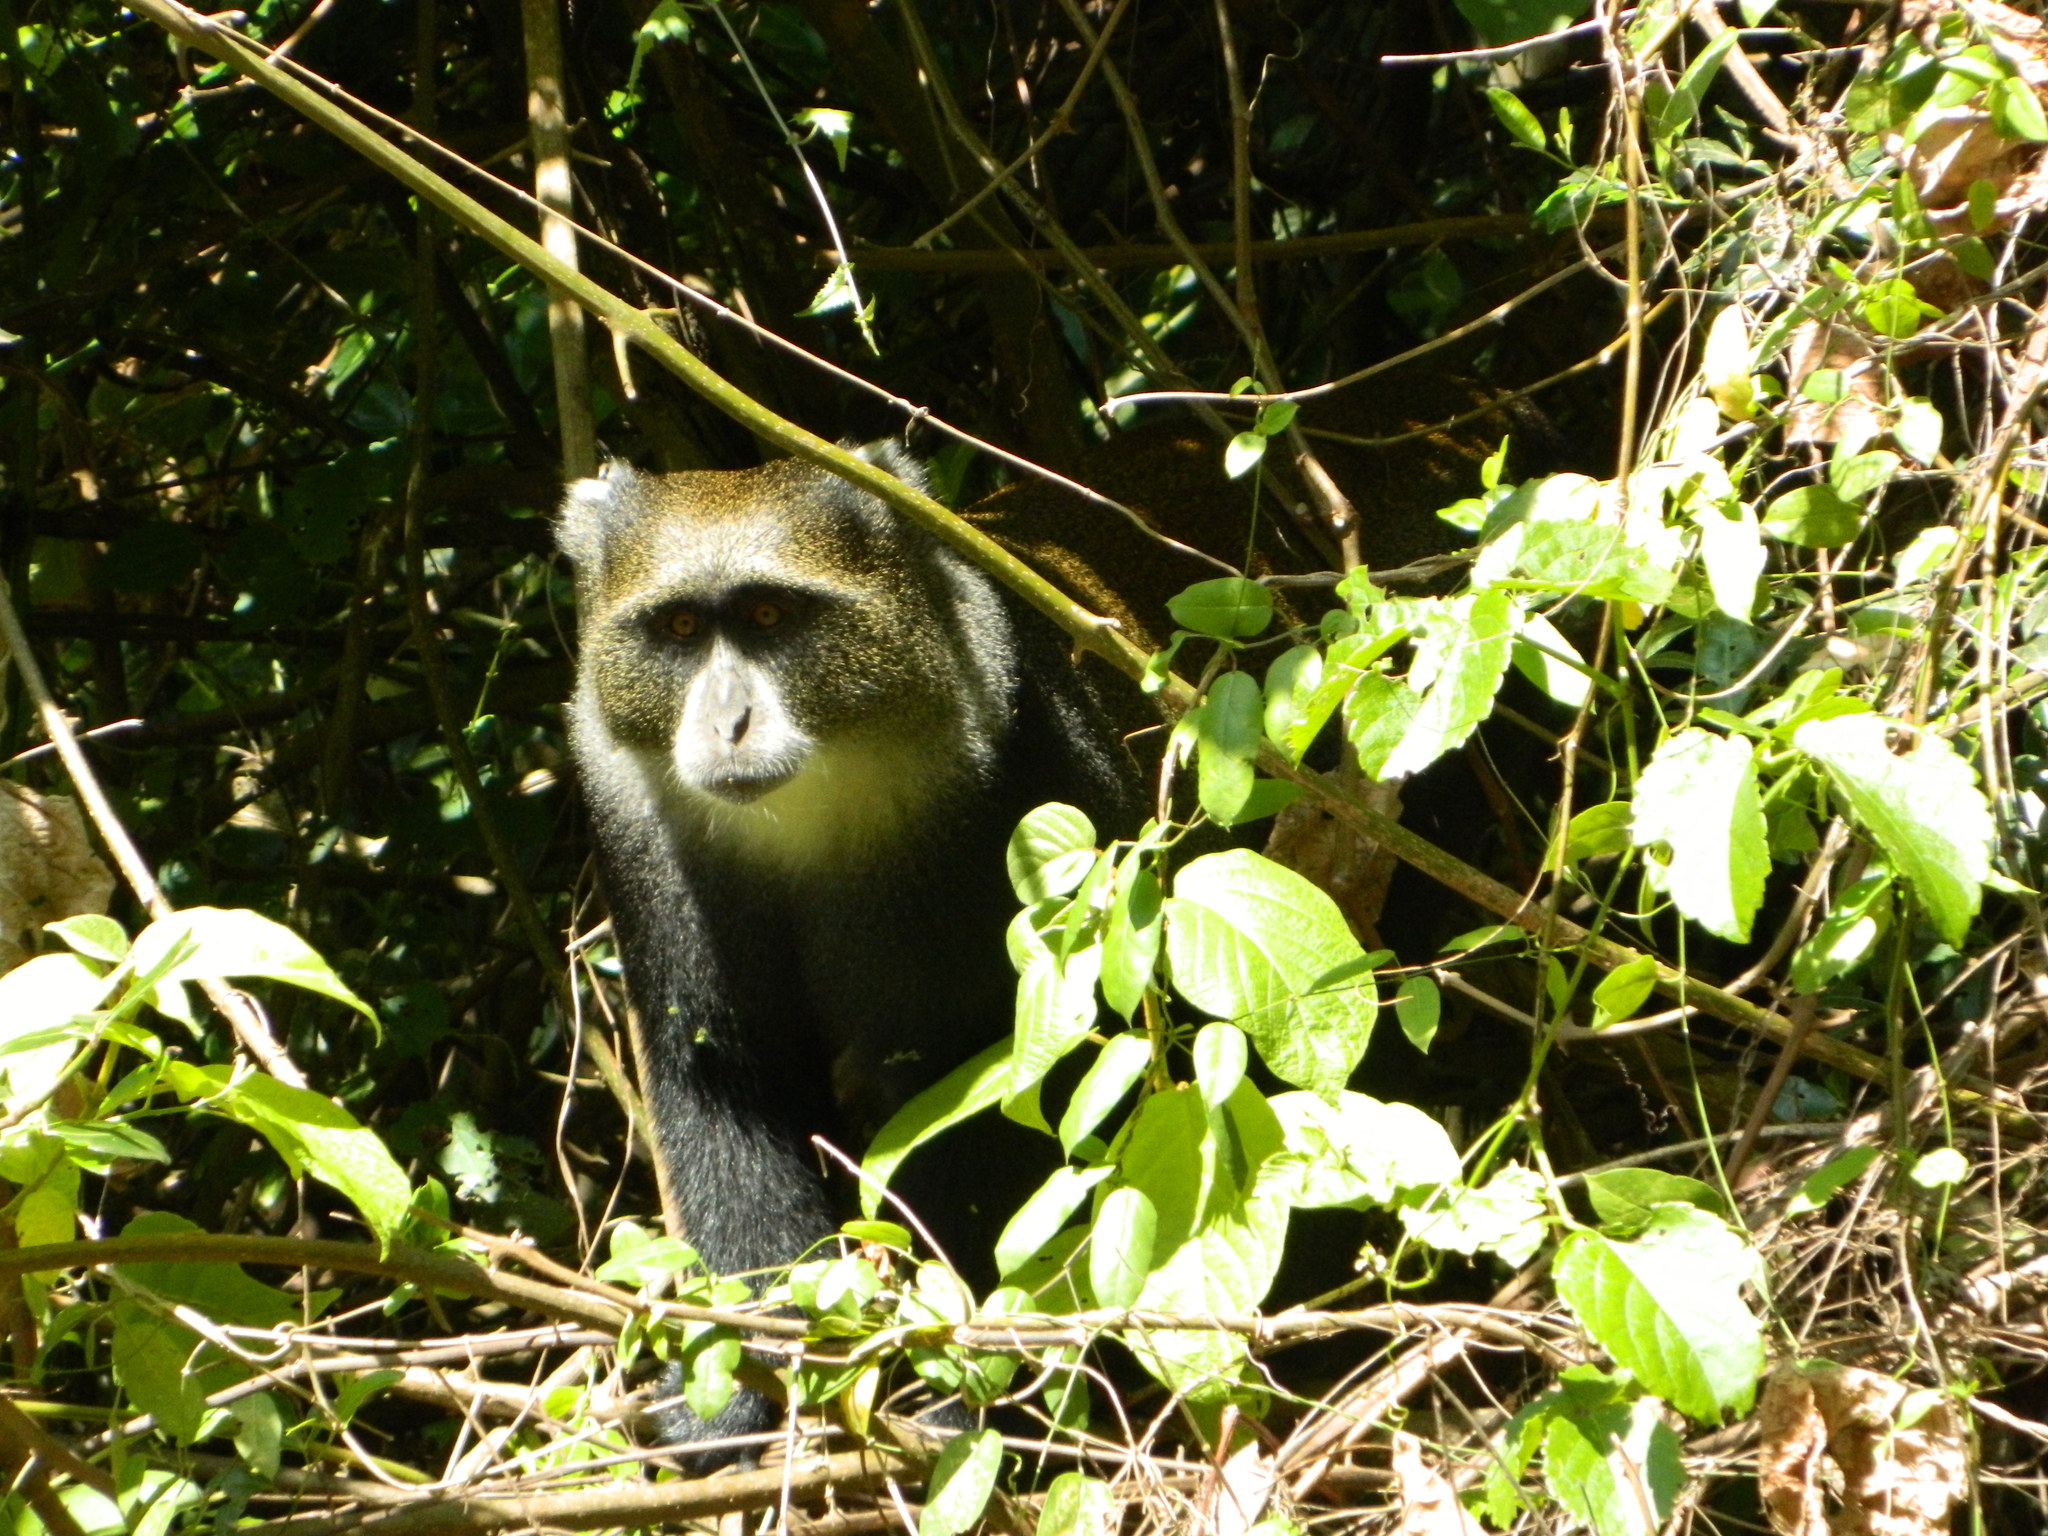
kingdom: Animalia
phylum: Chordata
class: Mammalia
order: Primates
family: Cercopithecidae
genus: Cercopithecus
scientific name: Cercopithecus mitis
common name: Blue monkey
